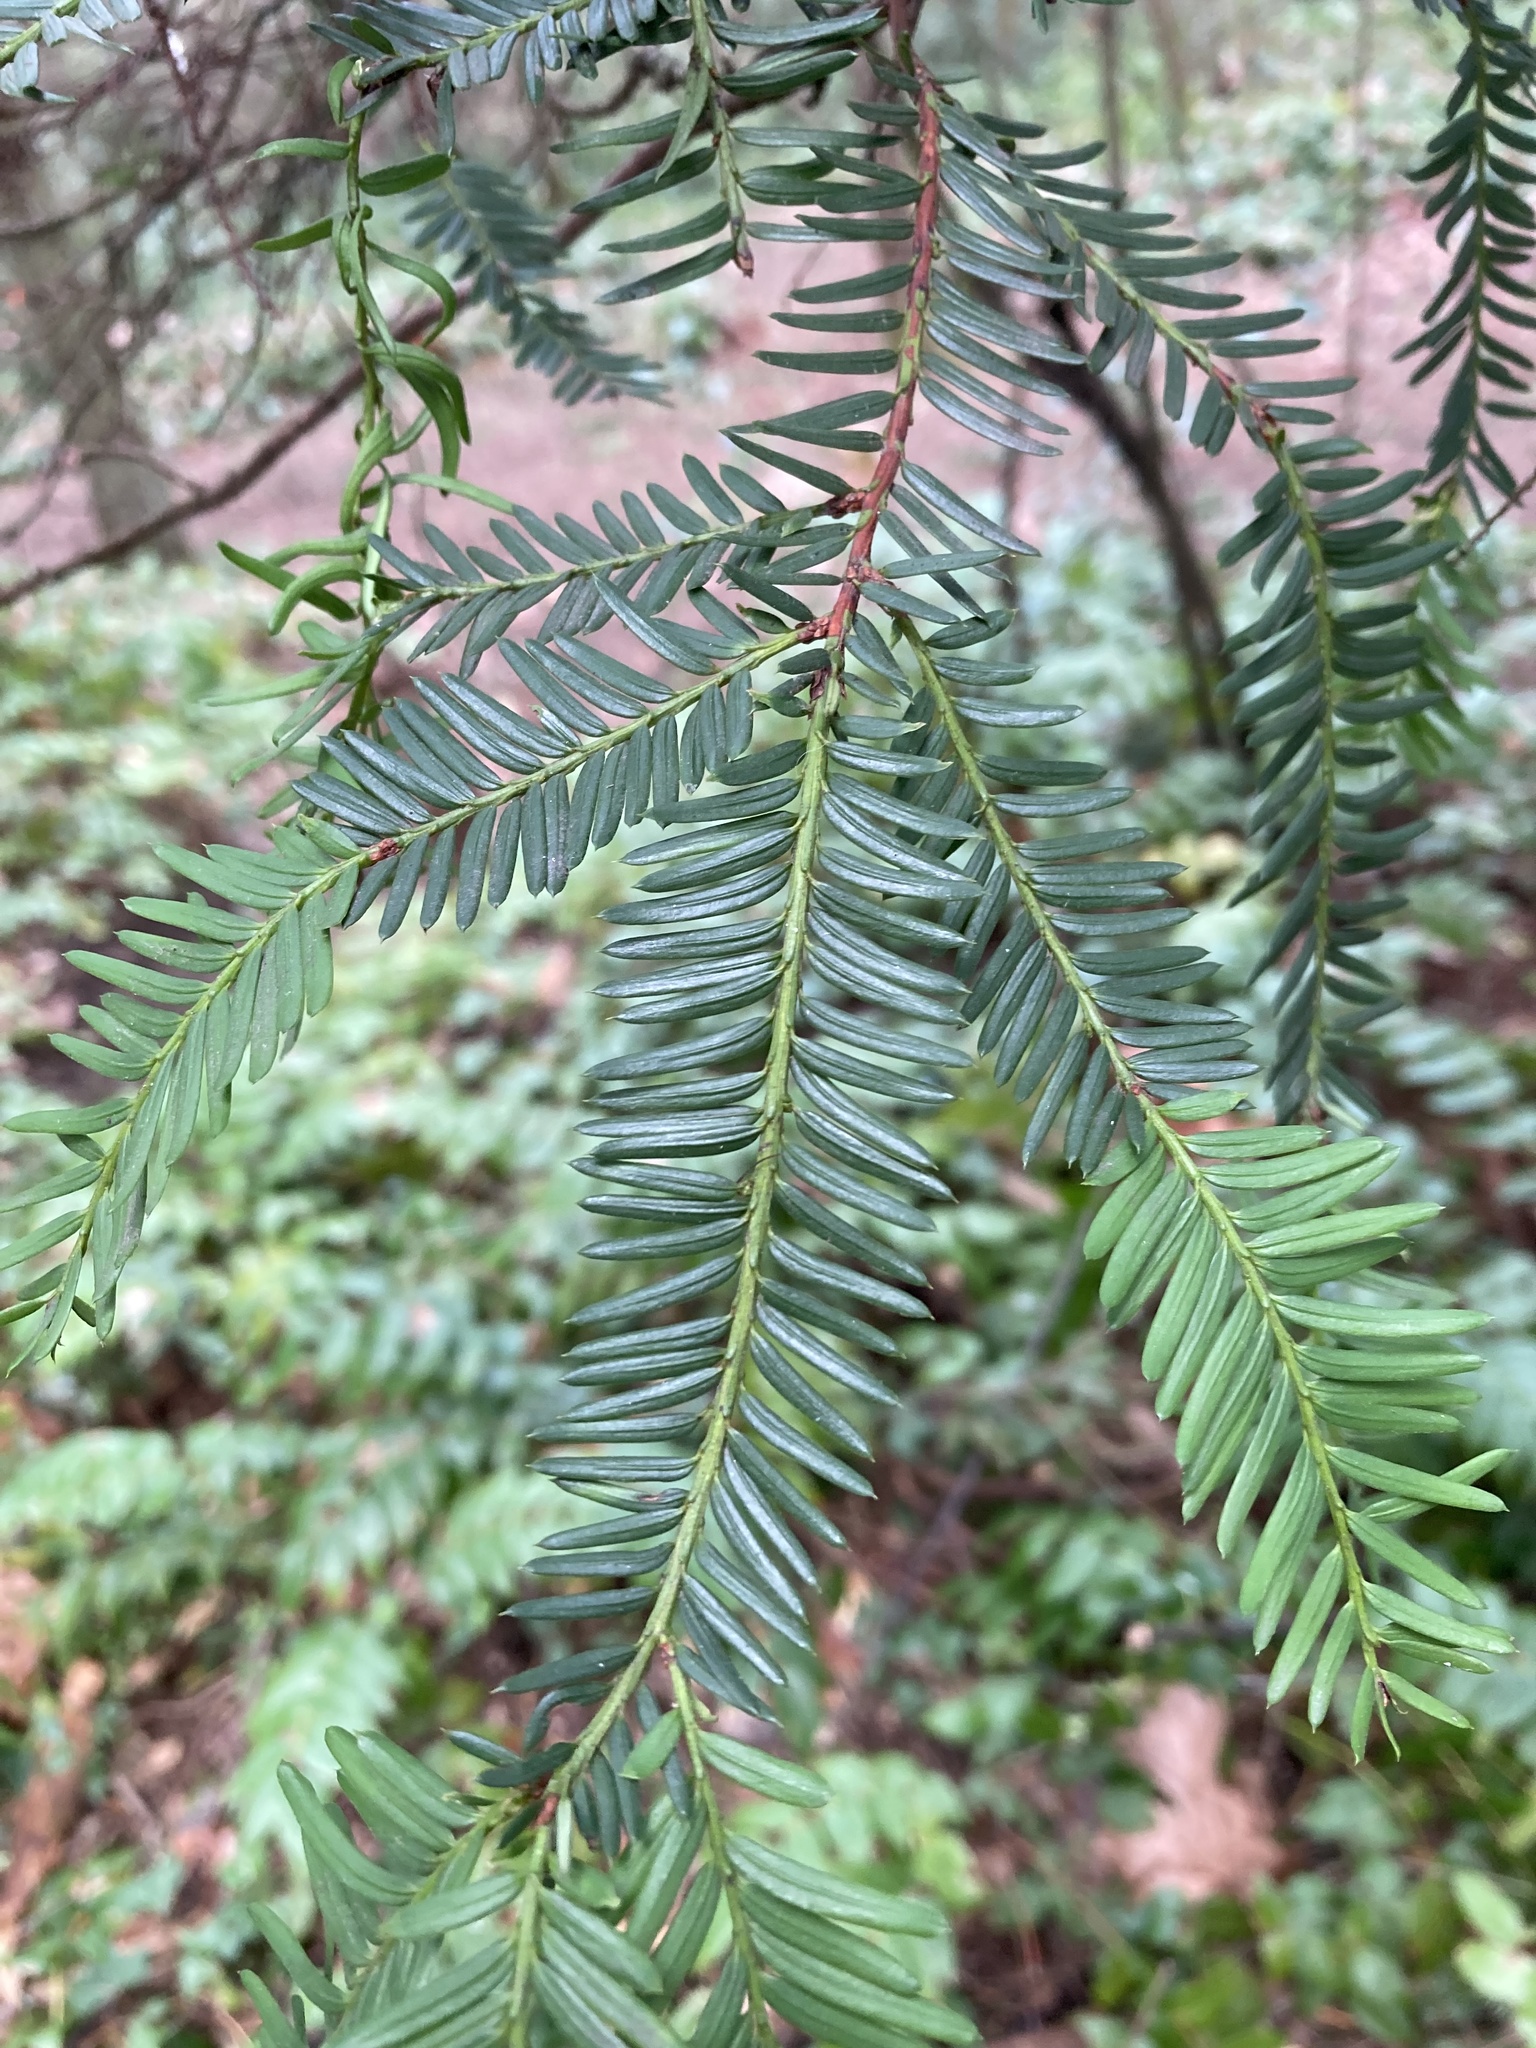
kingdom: Plantae
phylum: Tracheophyta
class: Pinopsida
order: Pinales
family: Taxaceae
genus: Taxus
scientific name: Taxus brevifolia
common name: Pacific yew
